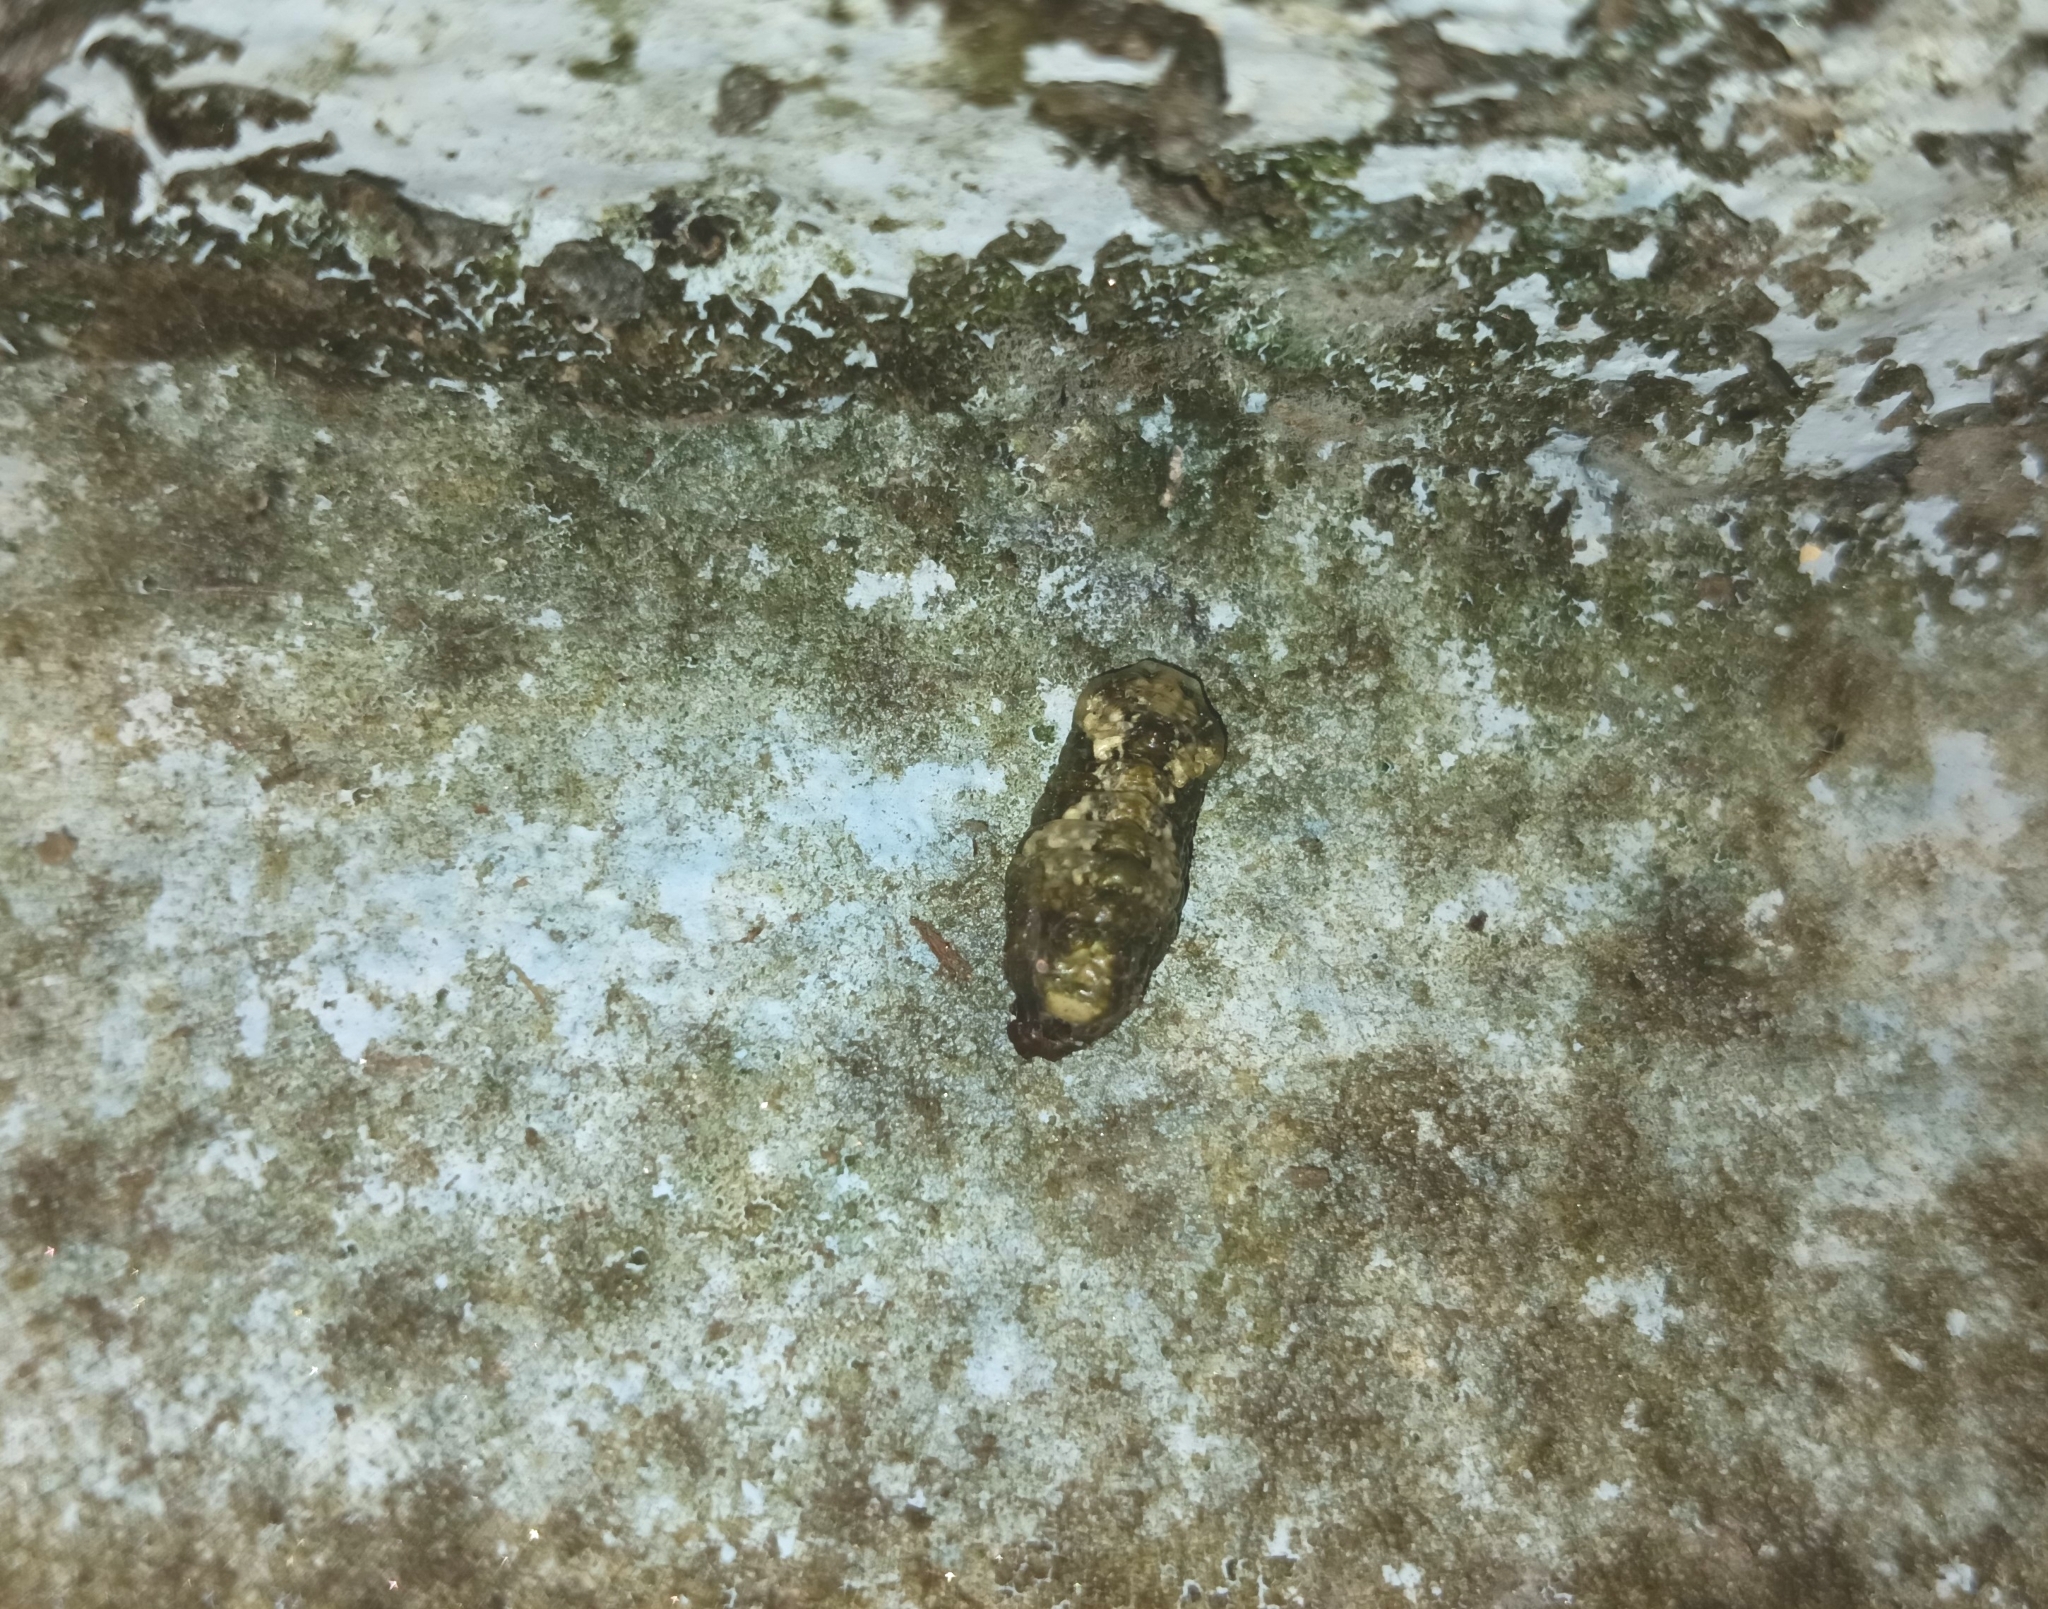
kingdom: Animalia
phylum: Arthropoda
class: Insecta
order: Lepidoptera
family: Lycaenidae
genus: Tajuria
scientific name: Tajuria cippus
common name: Peacock royal
